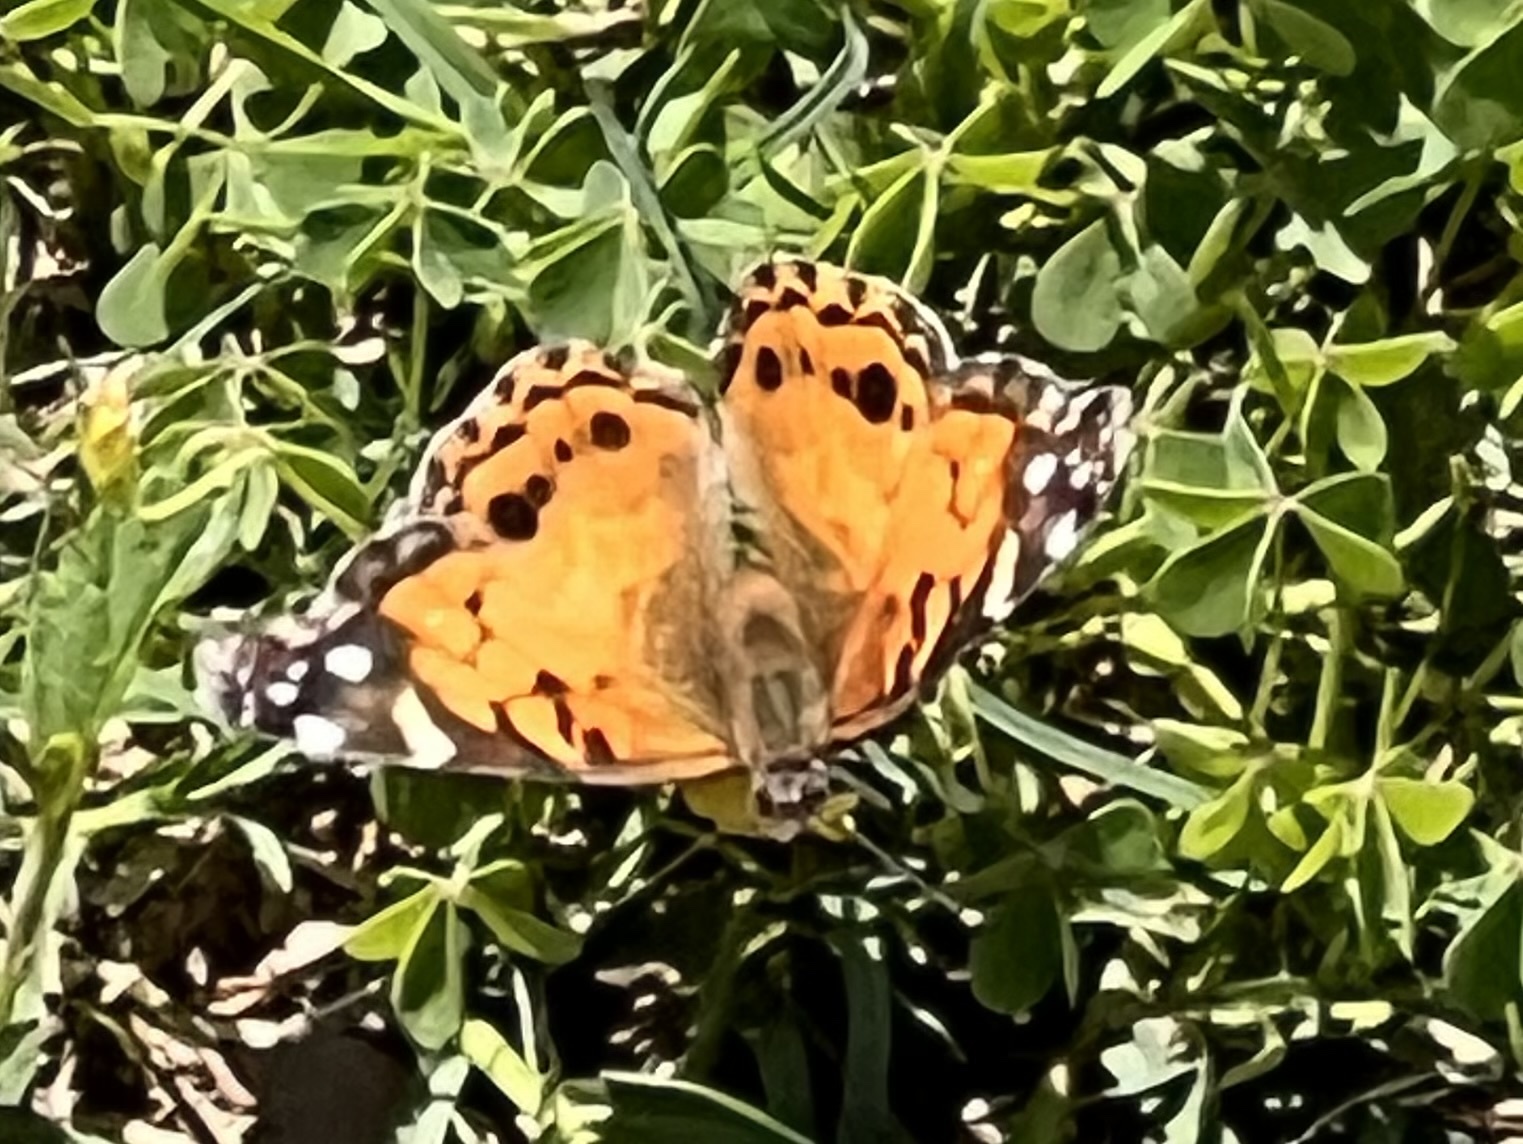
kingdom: Animalia
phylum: Arthropoda
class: Insecta
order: Lepidoptera
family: Nymphalidae
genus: Vanessa
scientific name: Vanessa virginiensis
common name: American lady
